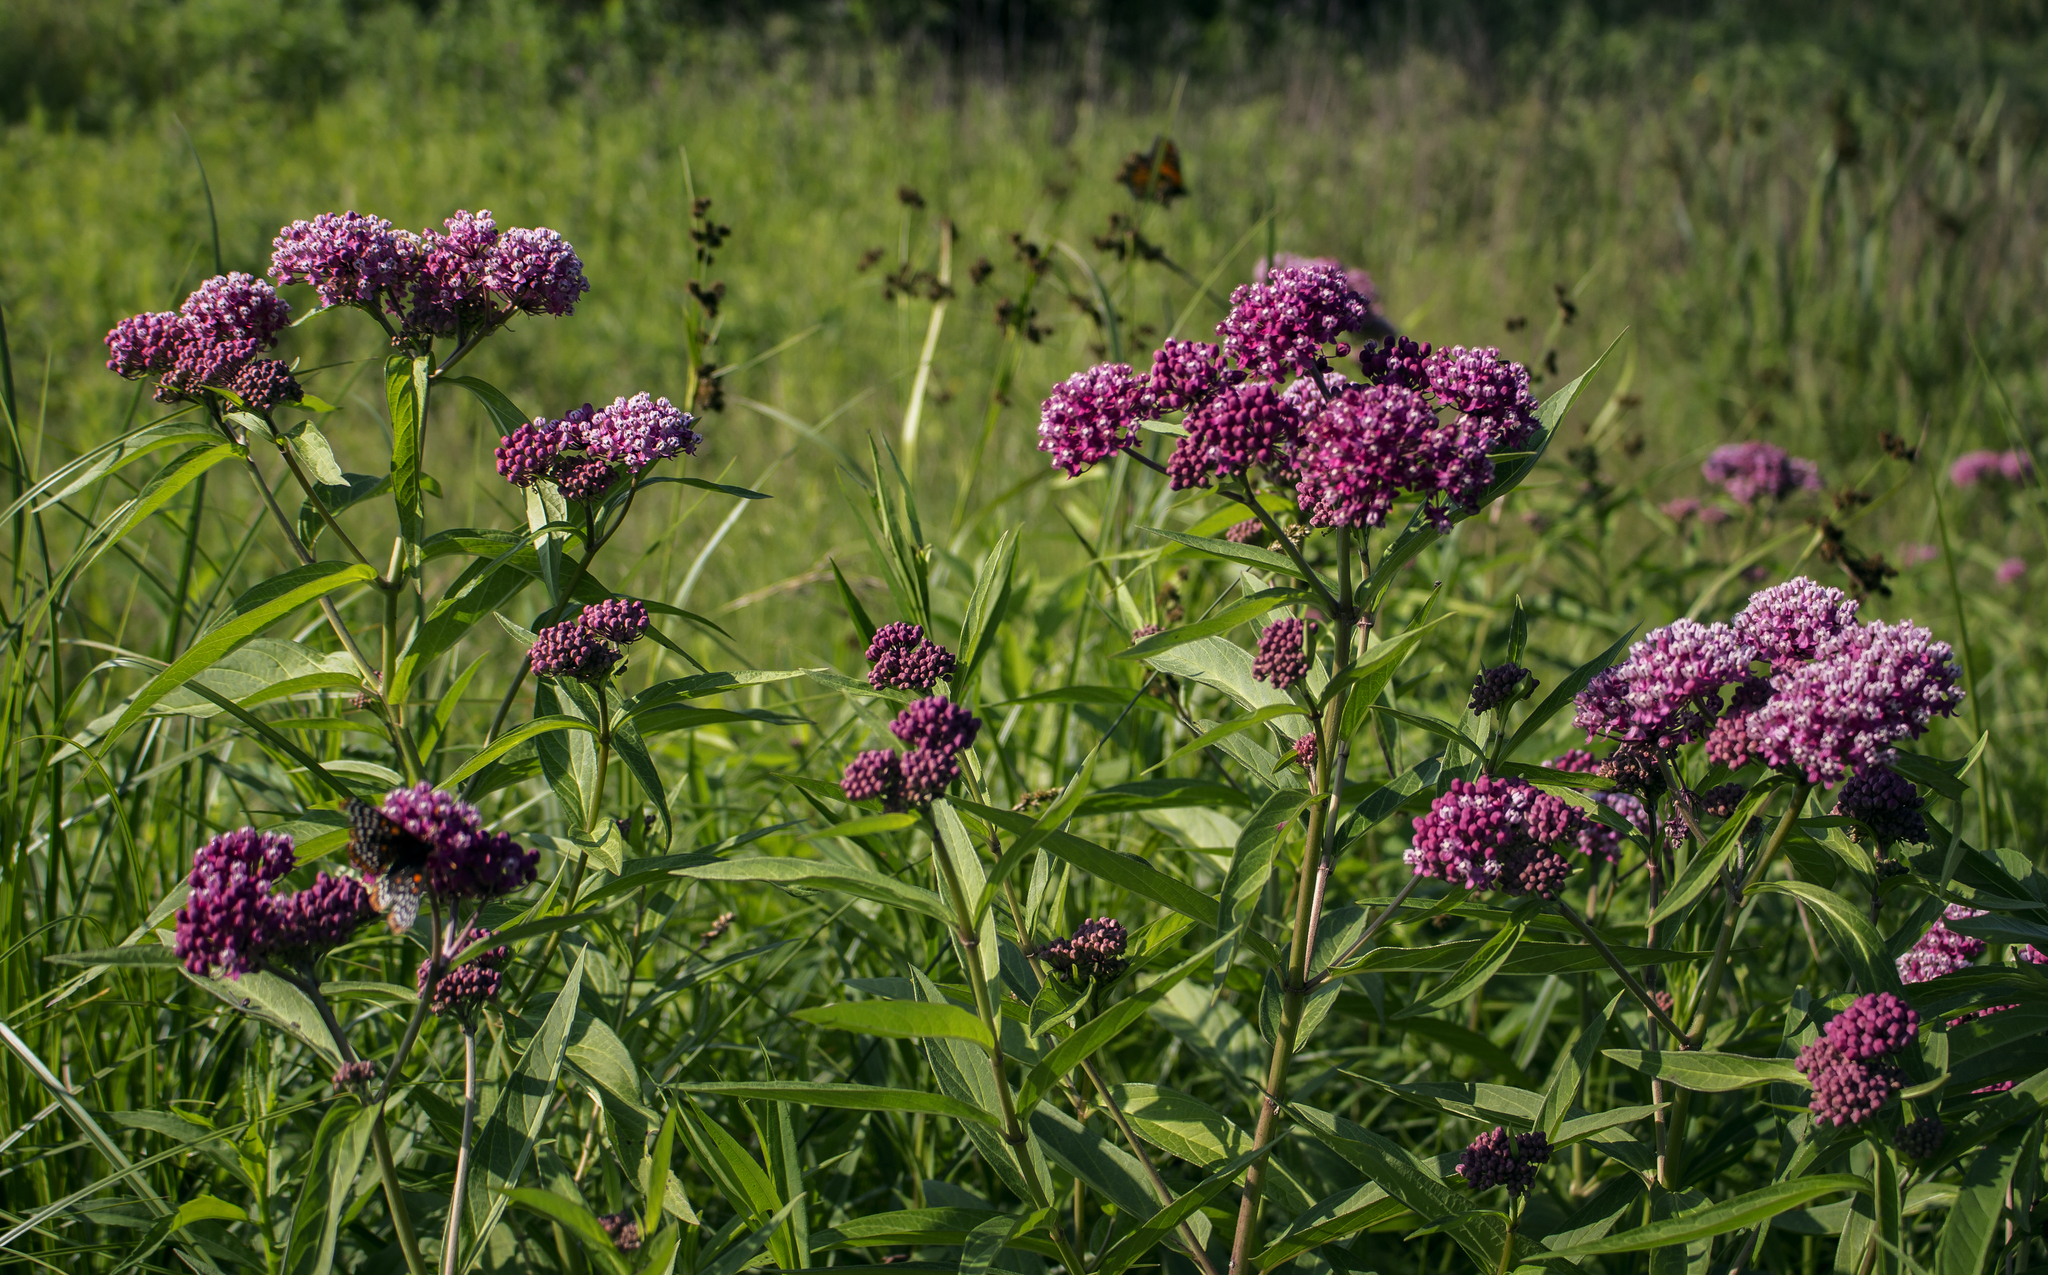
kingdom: Plantae
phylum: Tracheophyta
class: Magnoliopsida
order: Gentianales
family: Apocynaceae
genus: Asclepias
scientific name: Asclepias incarnata
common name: Swamp milkweed
